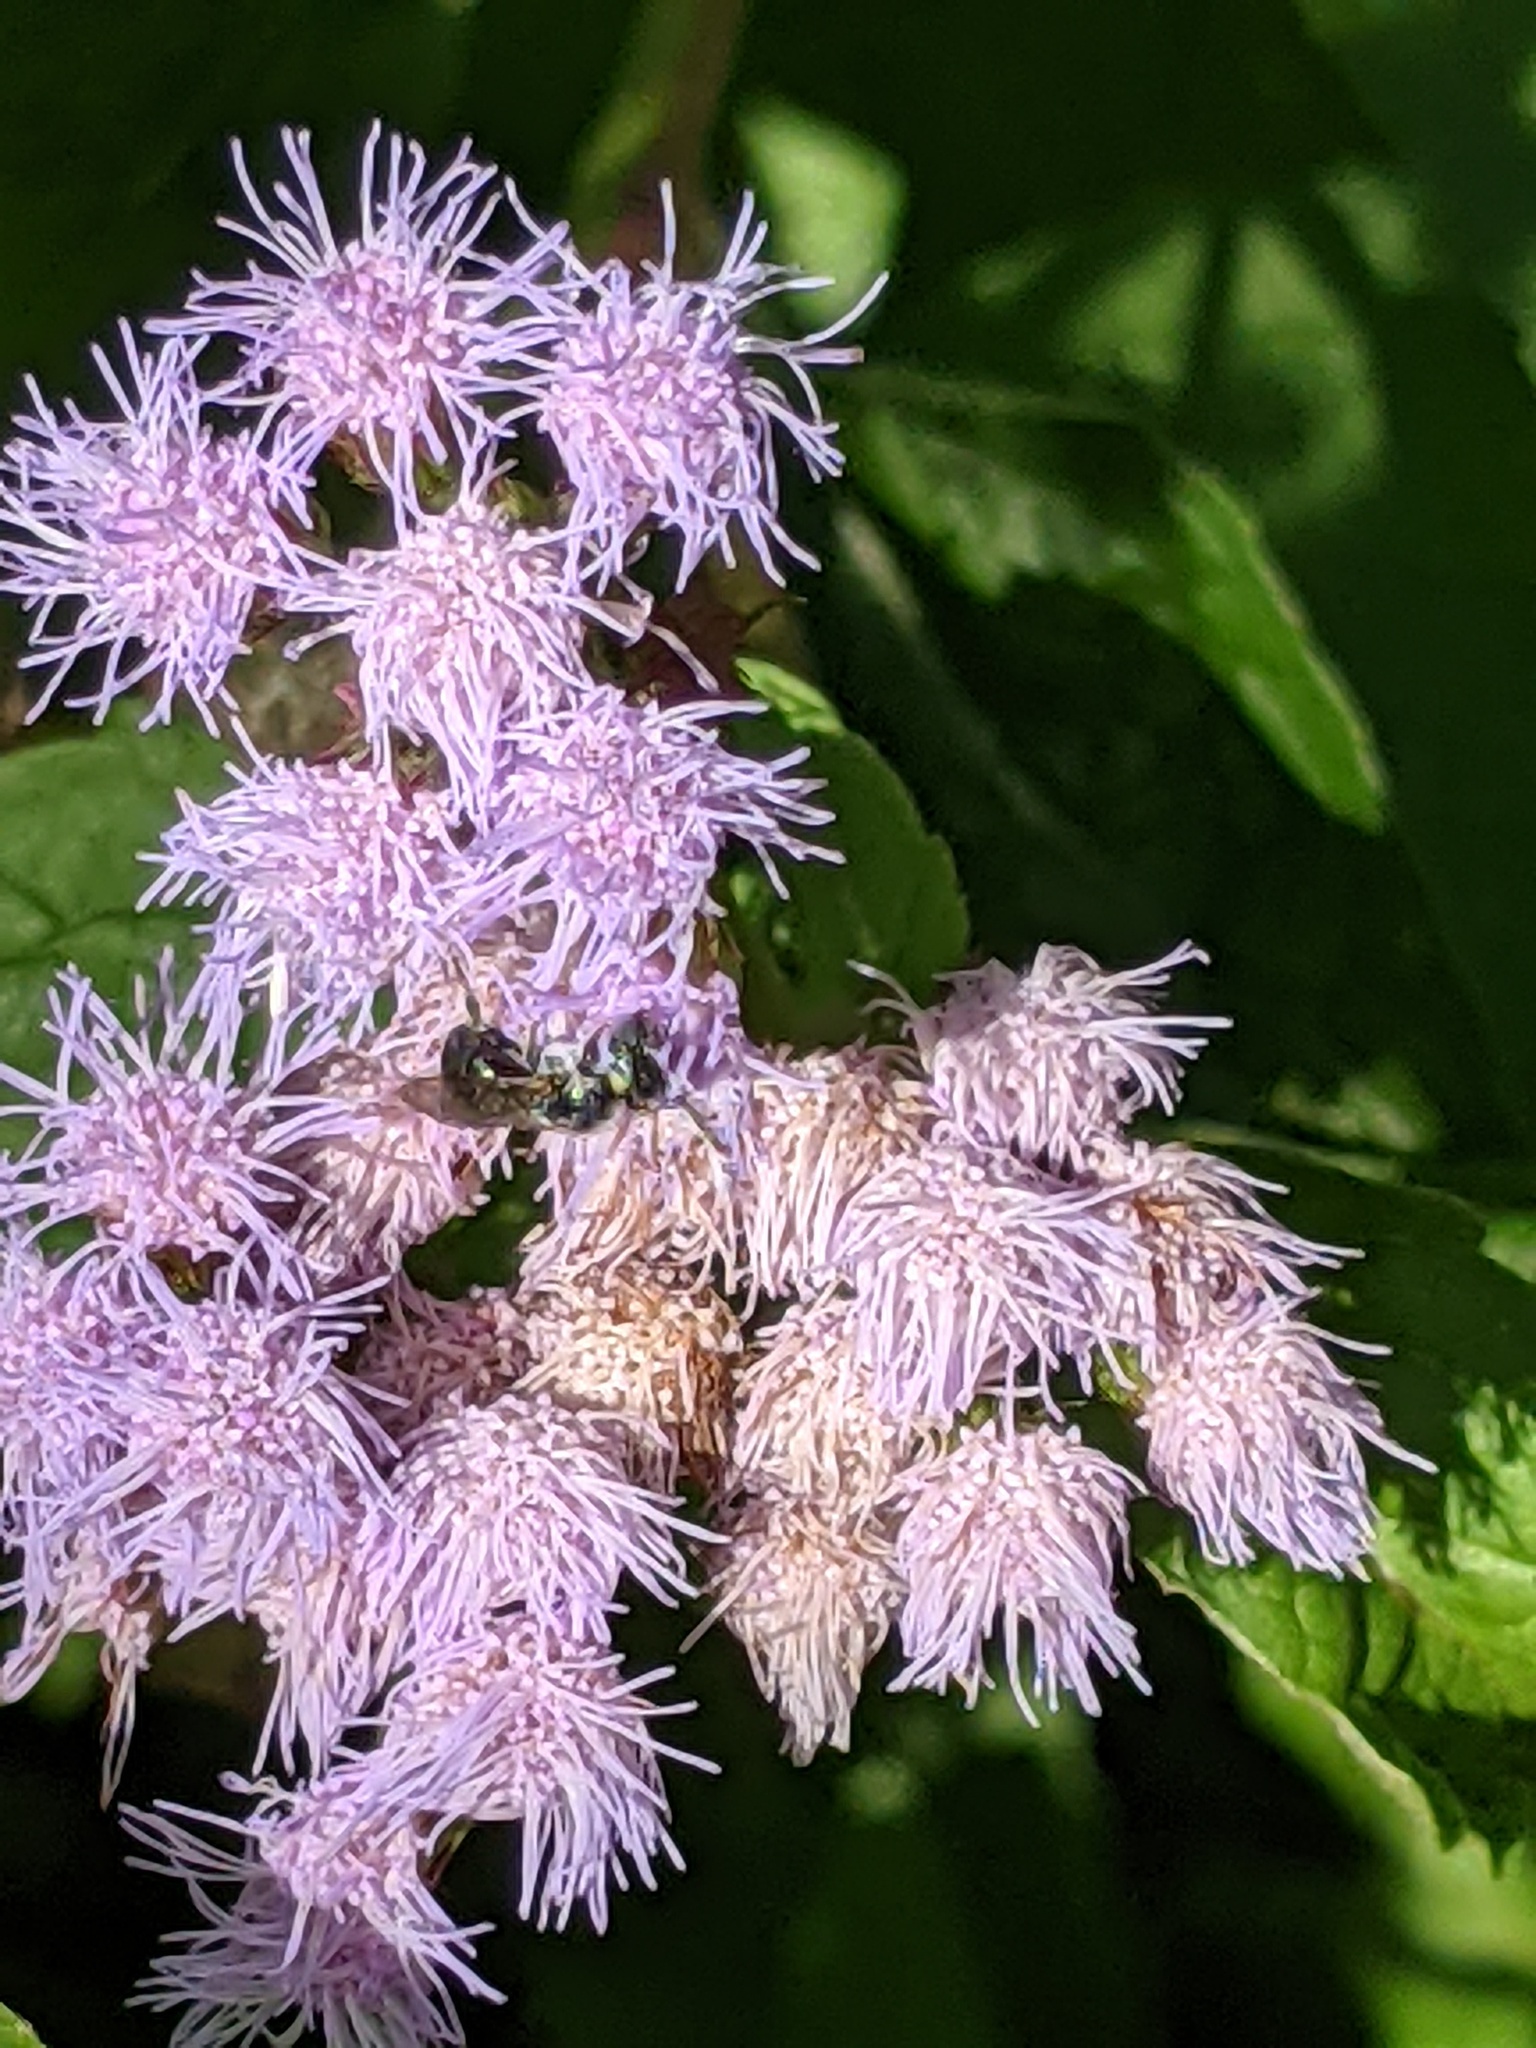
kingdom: Animalia
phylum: Arthropoda
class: Insecta
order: Hymenoptera
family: Apidae
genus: Zadontomerus
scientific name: Zadontomerus
